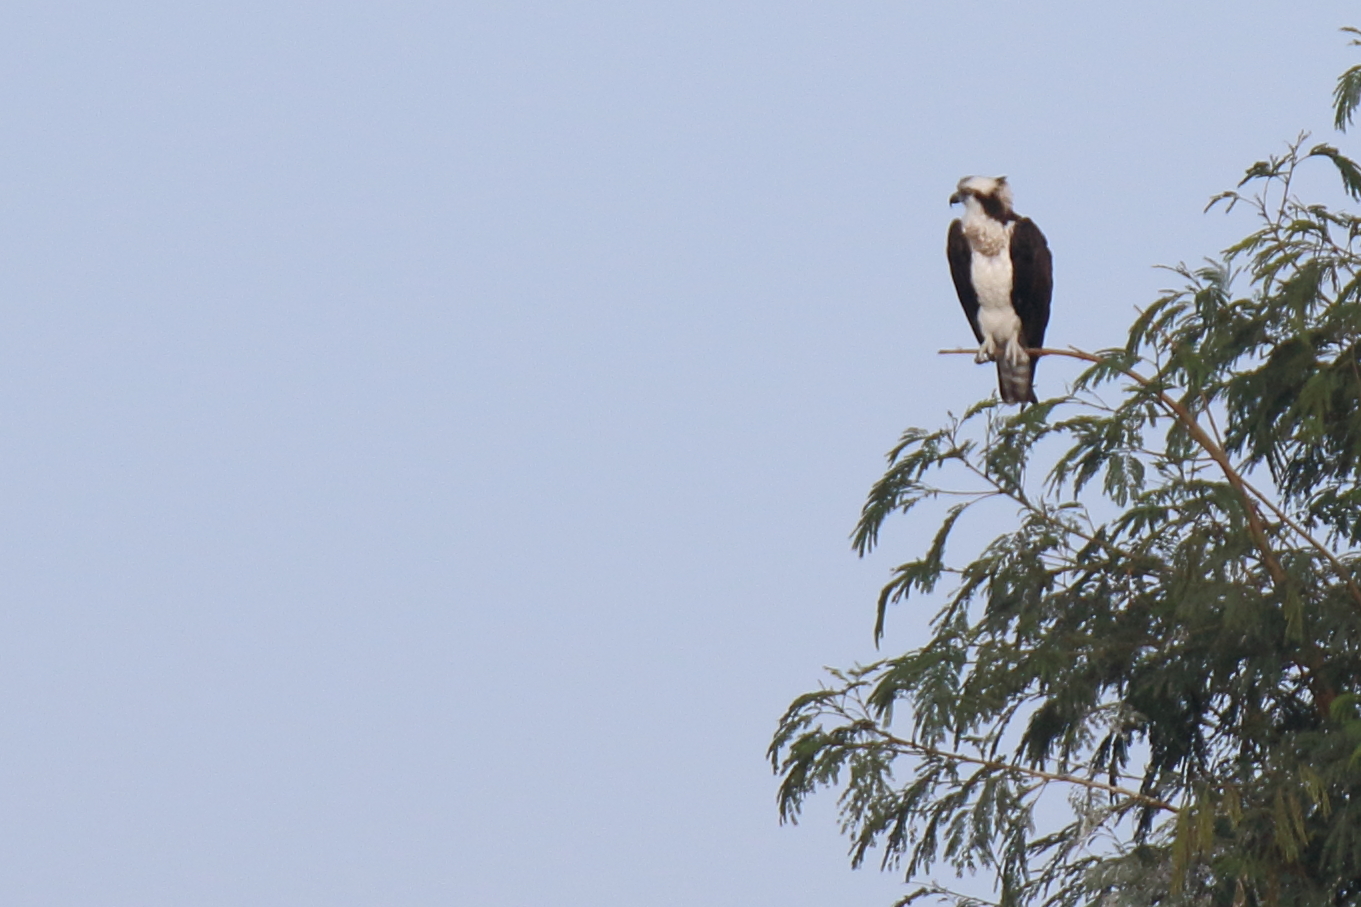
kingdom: Animalia
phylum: Chordata
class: Aves
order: Accipitriformes
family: Pandionidae
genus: Pandion
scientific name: Pandion haliaetus
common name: Osprey
